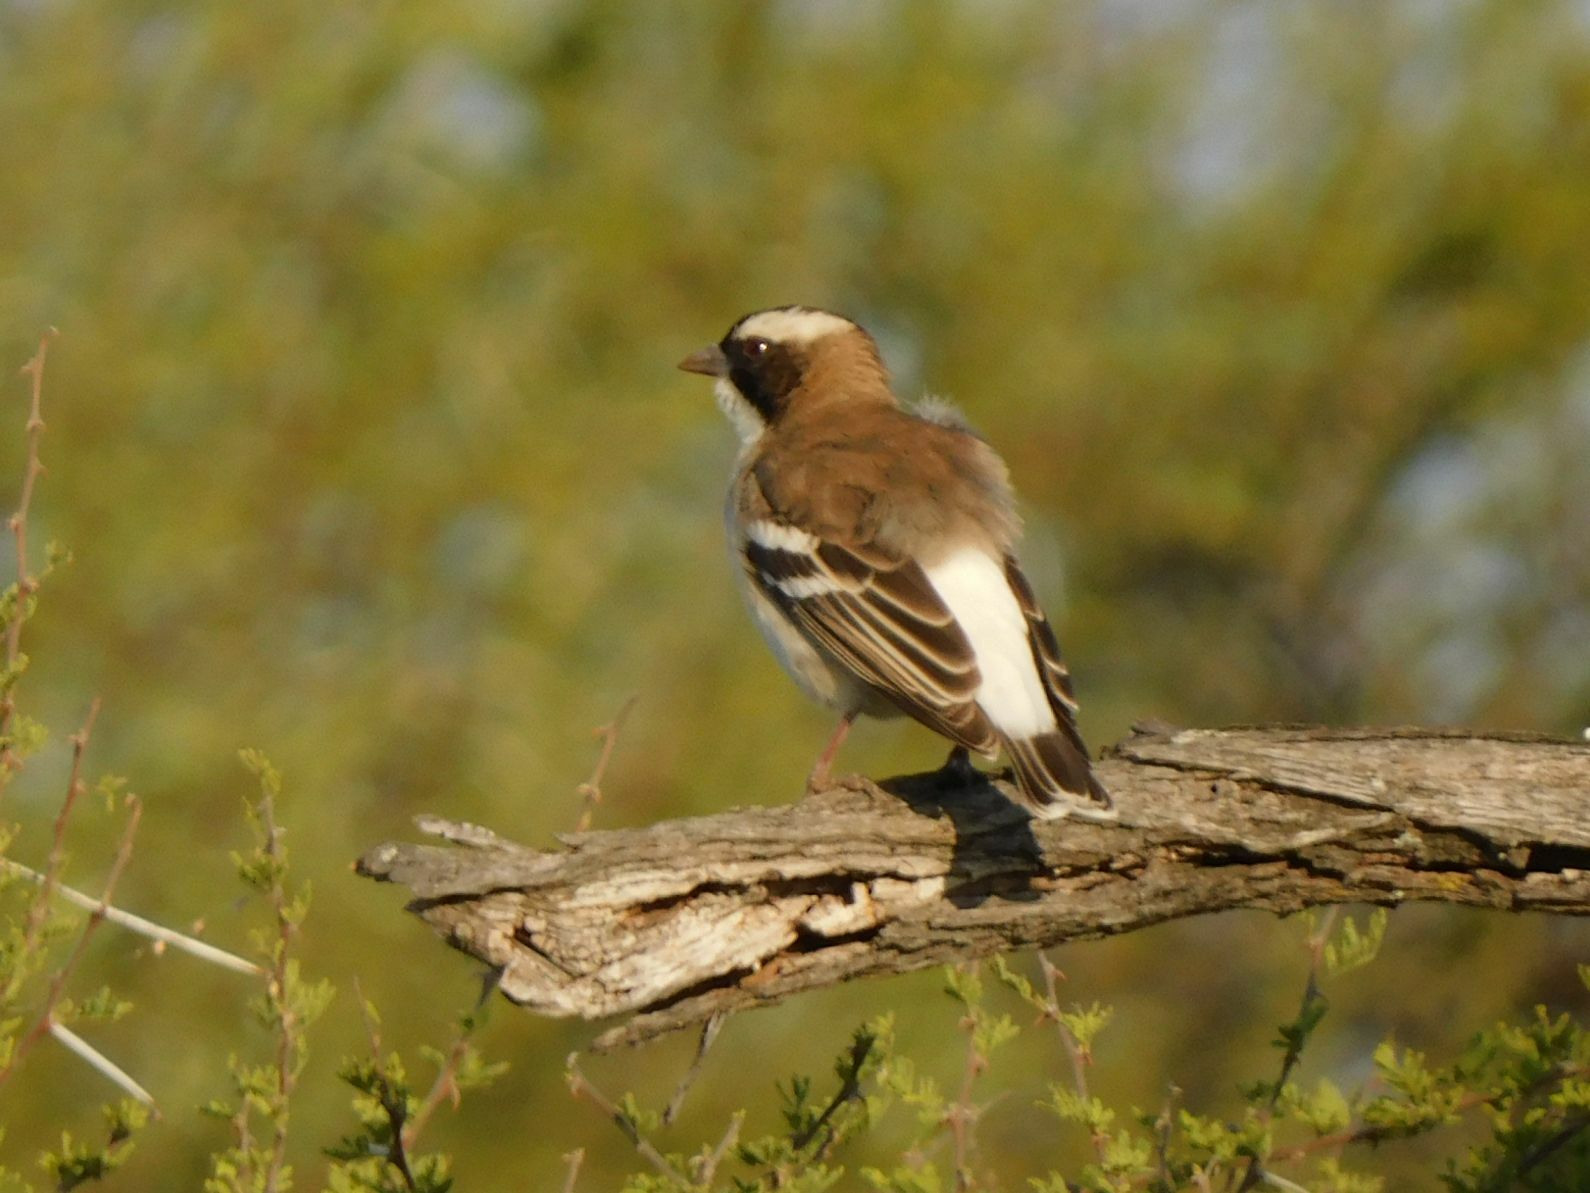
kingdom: Animalia
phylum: Chordata
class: Aves
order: Passeriformes
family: Passeridae
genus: Plocepasser
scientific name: Plocepasser mahali
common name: White-browed sparrow-weaver
